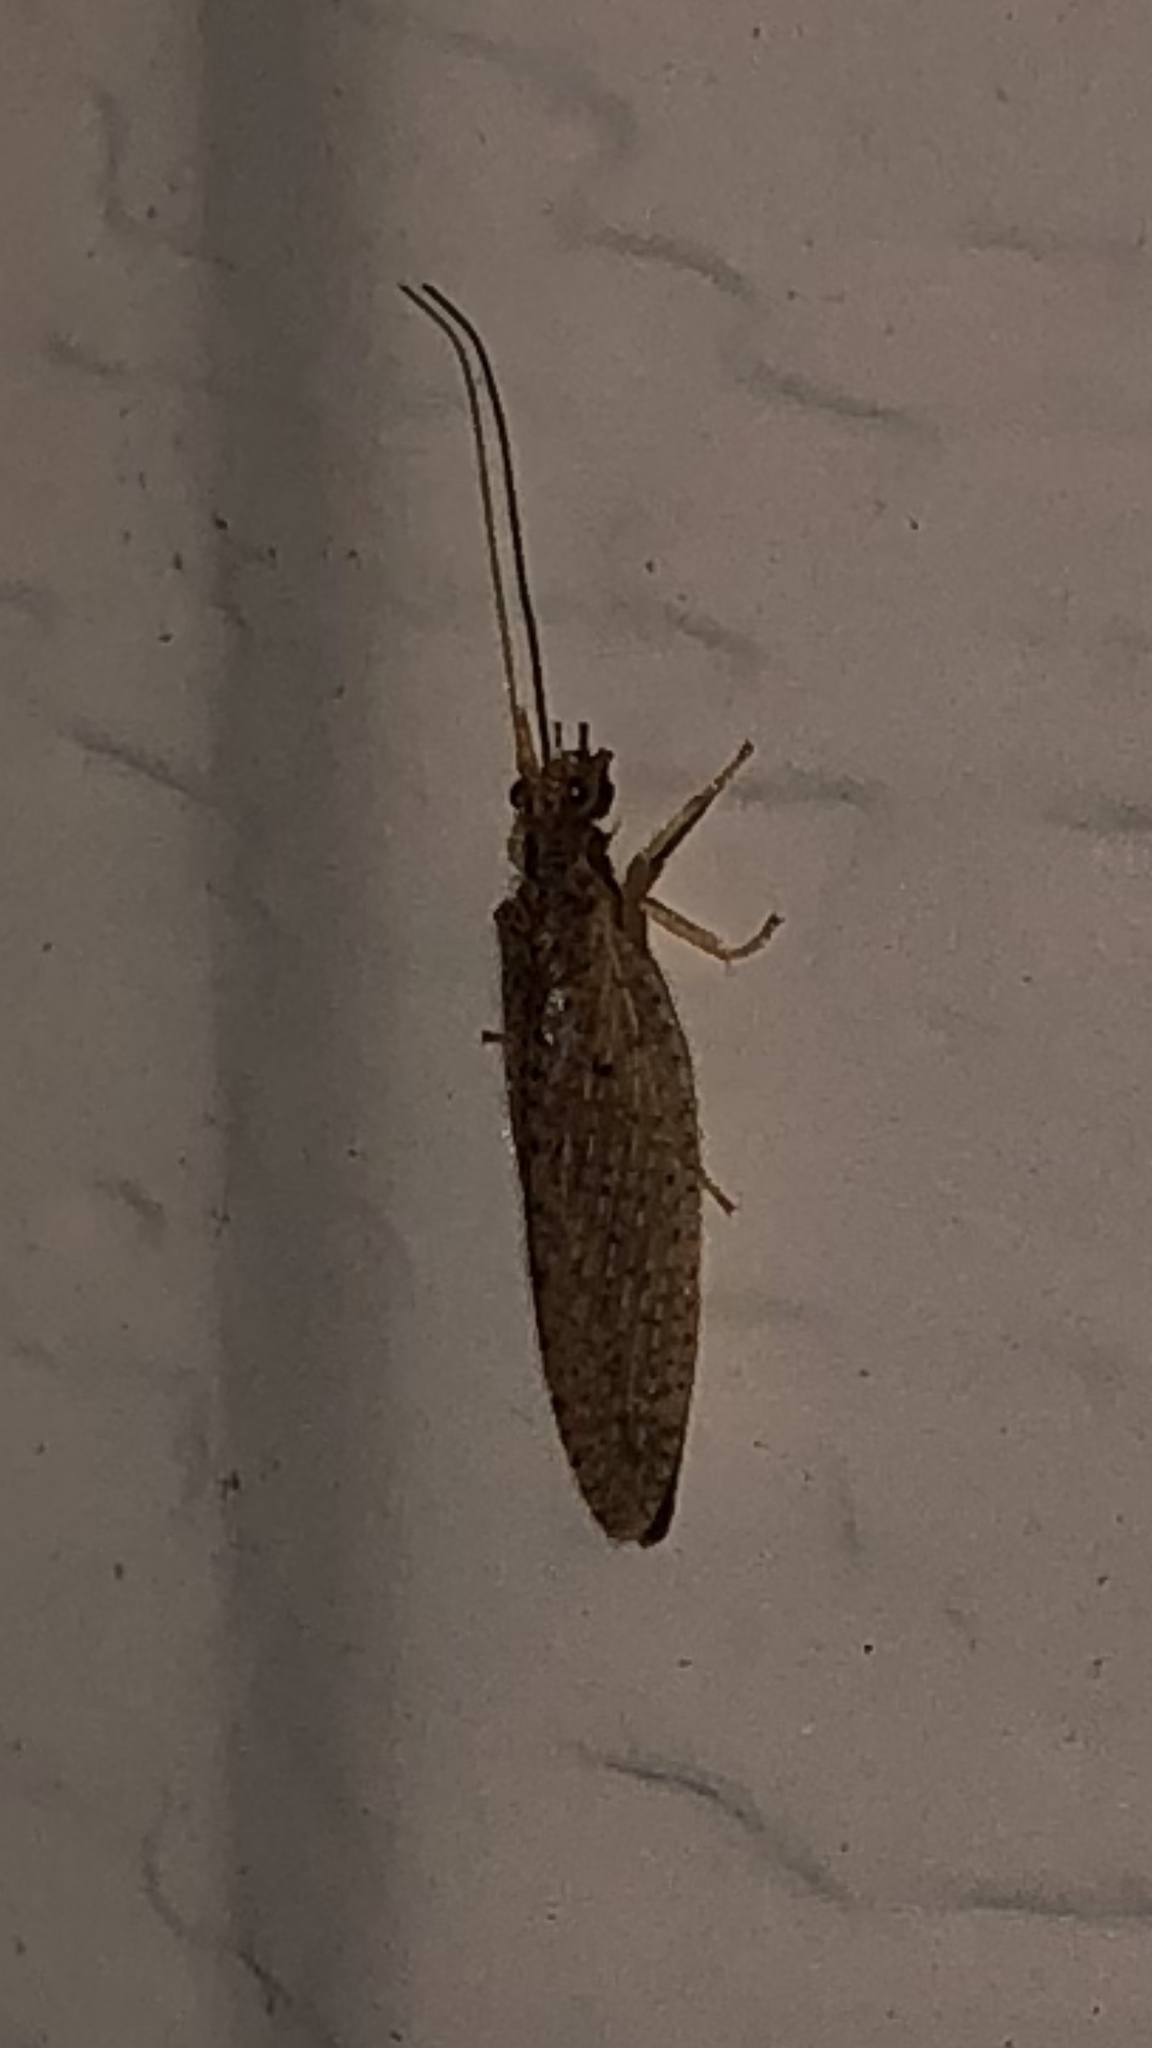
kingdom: Animalia
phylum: Arthropoda
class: Insecta
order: Neuroptera
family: Hemerobiidae
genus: Micromus
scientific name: Micromus subanticus
